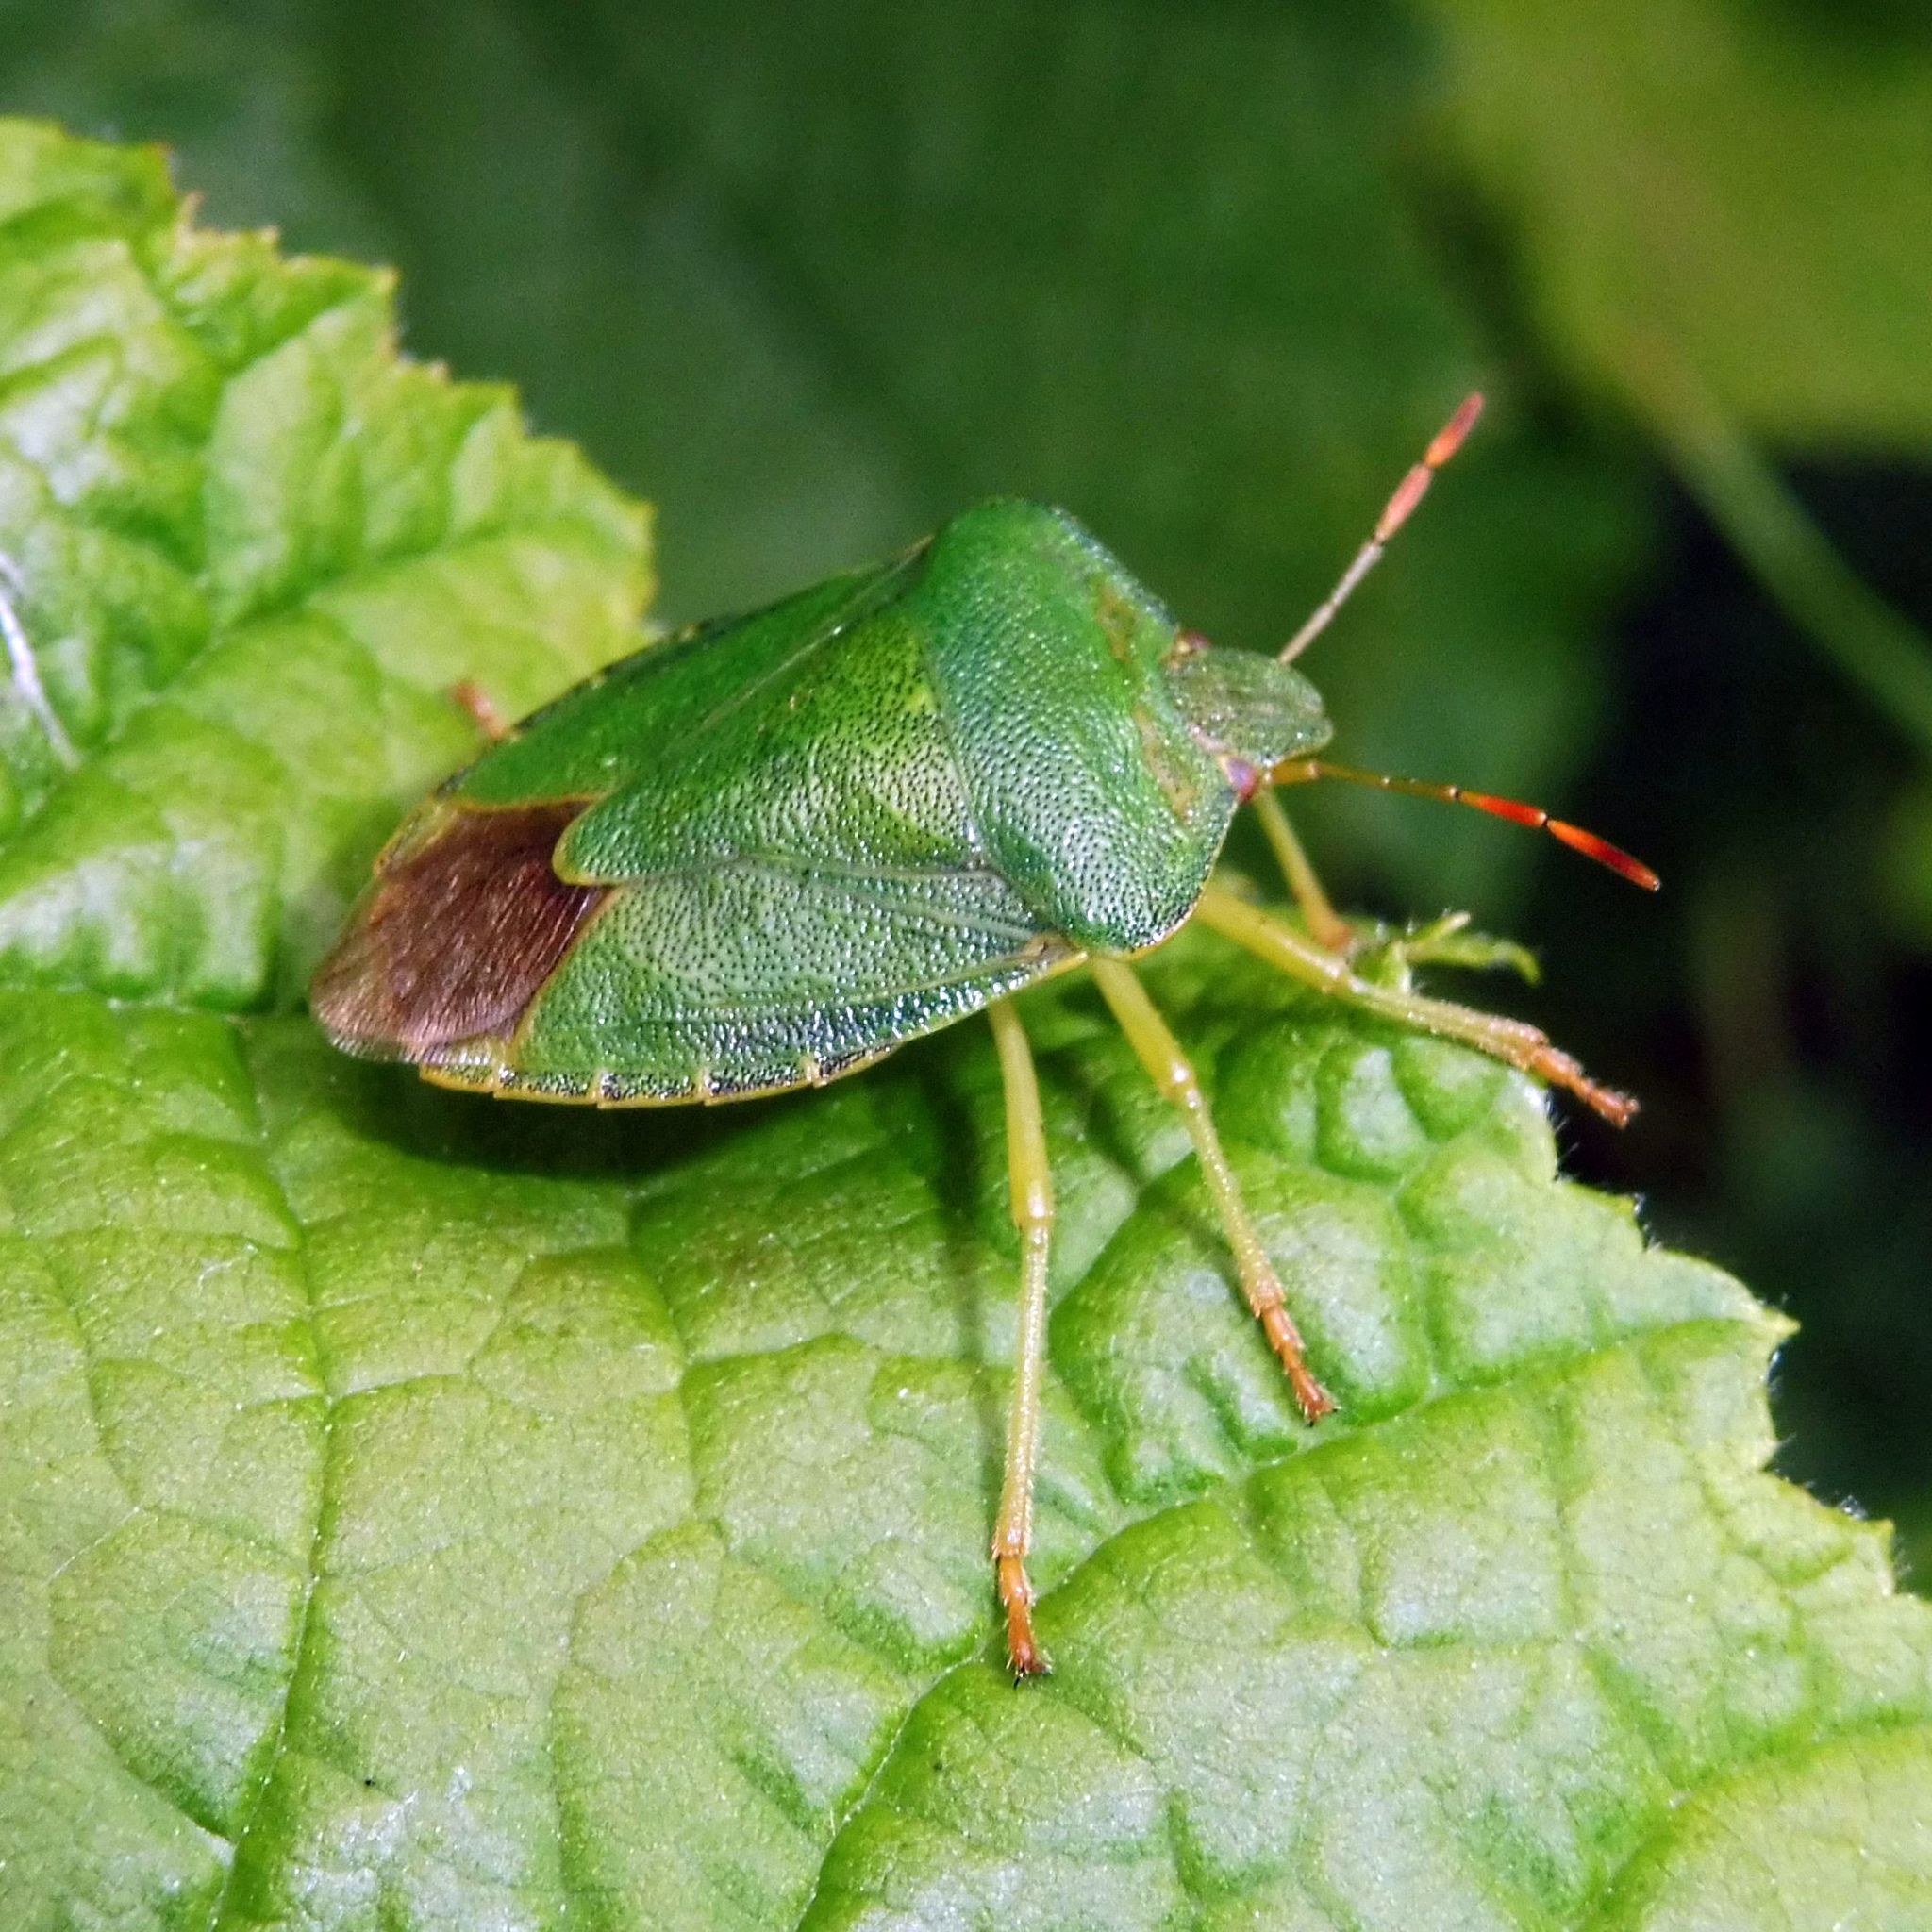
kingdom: Animalia
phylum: Arthropoda
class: Insecta
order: Hemiptera
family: Pentatomidae
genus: Palomena
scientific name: Palomena prasina
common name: Green shieldbug
